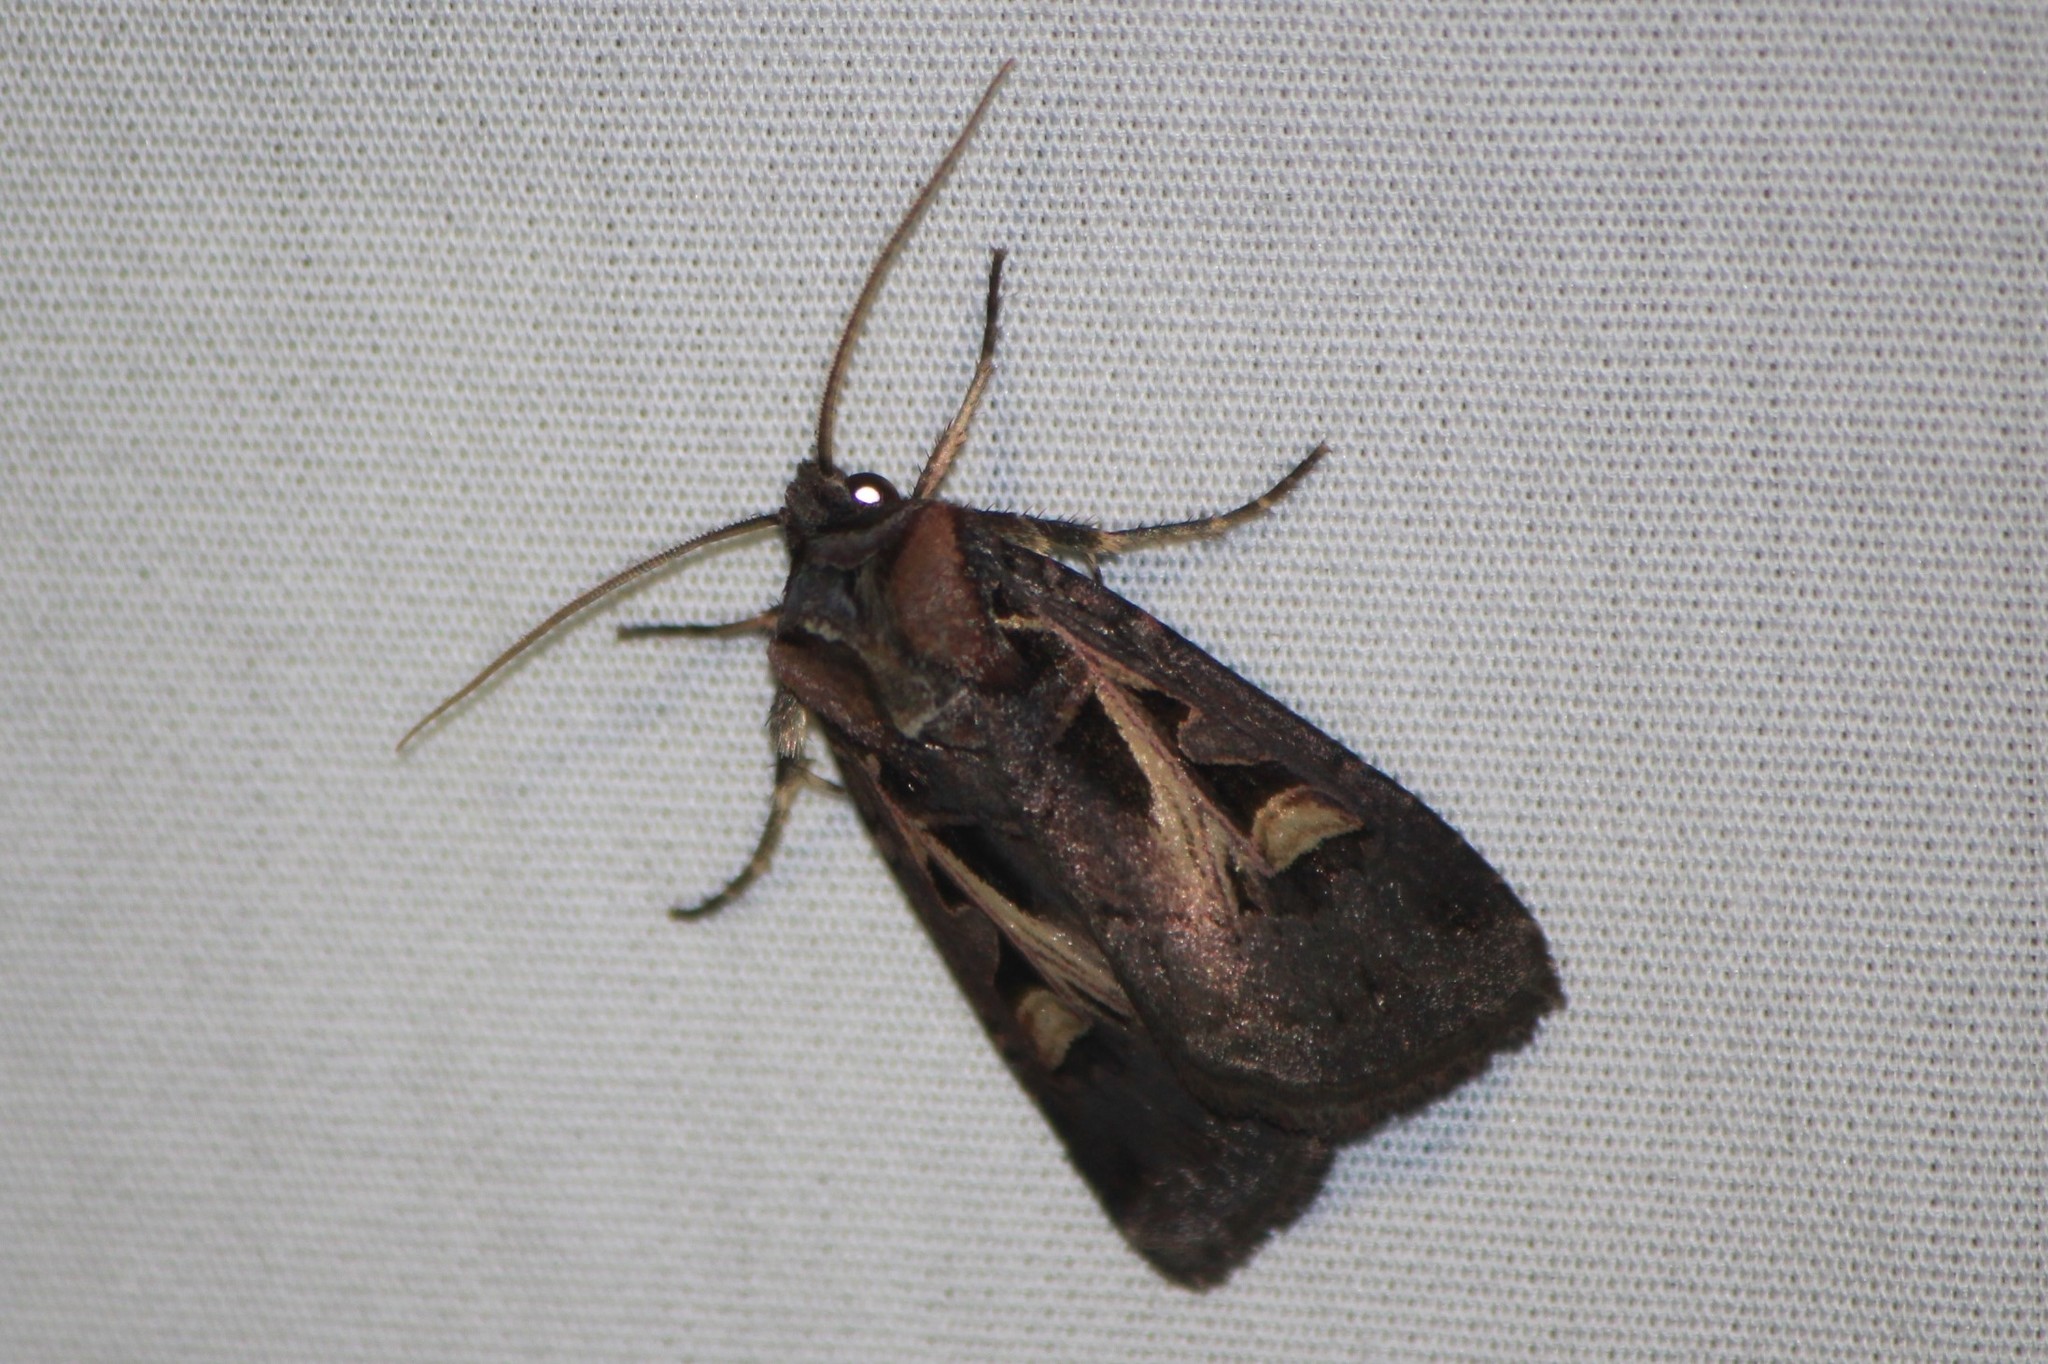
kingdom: Animalia
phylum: Arthropoda
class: Insecta
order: Lepidoptera
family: Noctuidae
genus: Feltia
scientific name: Feltia herilis
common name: Master's dart
